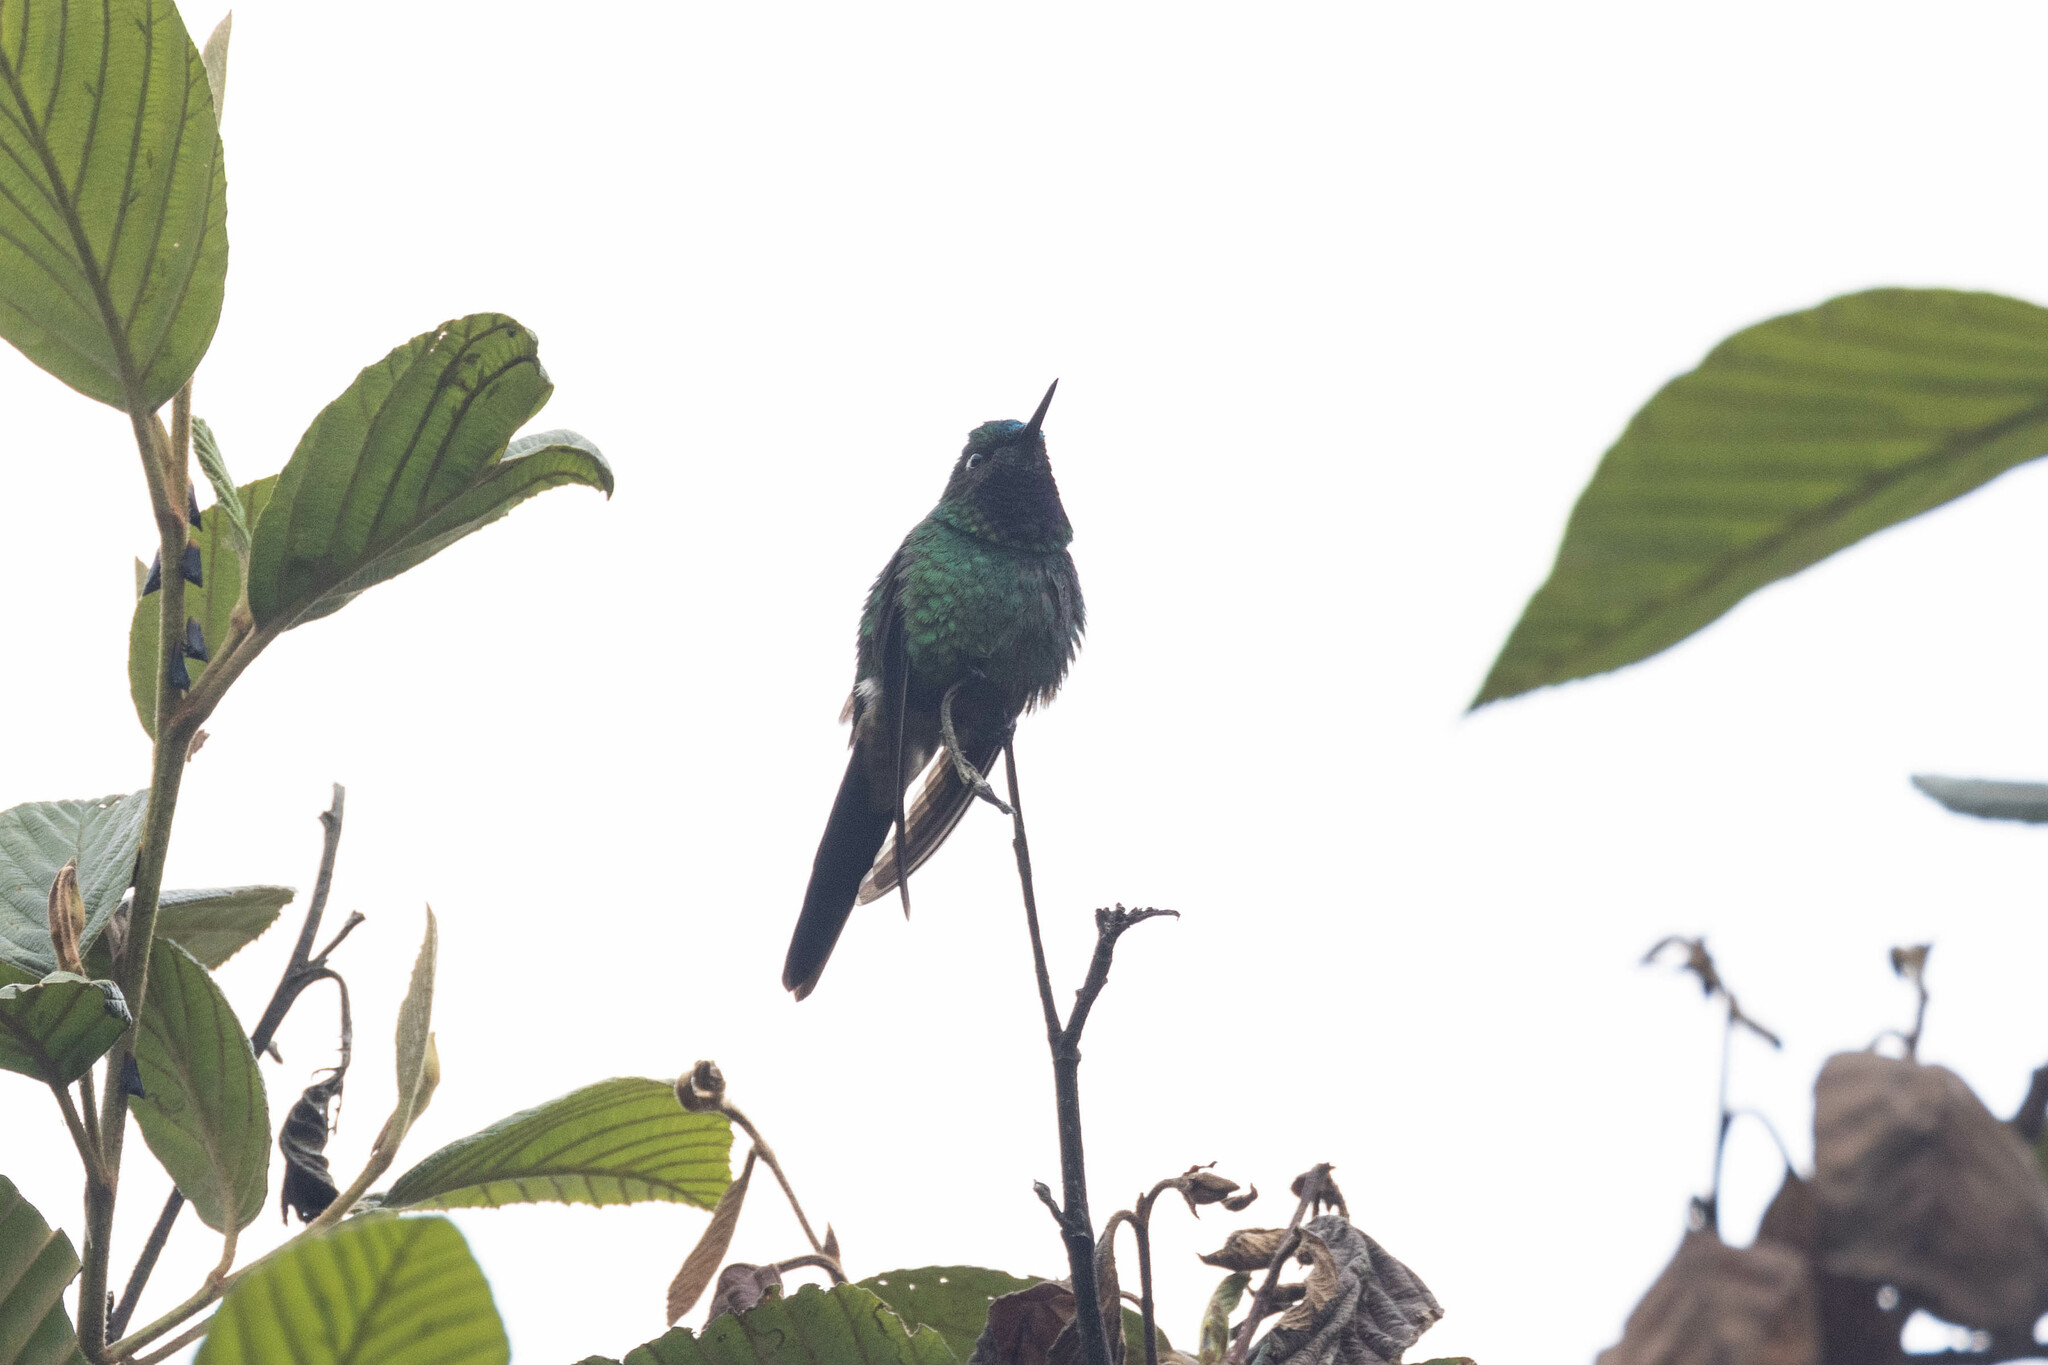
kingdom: Animalia
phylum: Chordata
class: Aves
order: Apodiformes
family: Trochilidae
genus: Heliangelus
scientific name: Heliangelus viola
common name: Purple-throated sunangel
